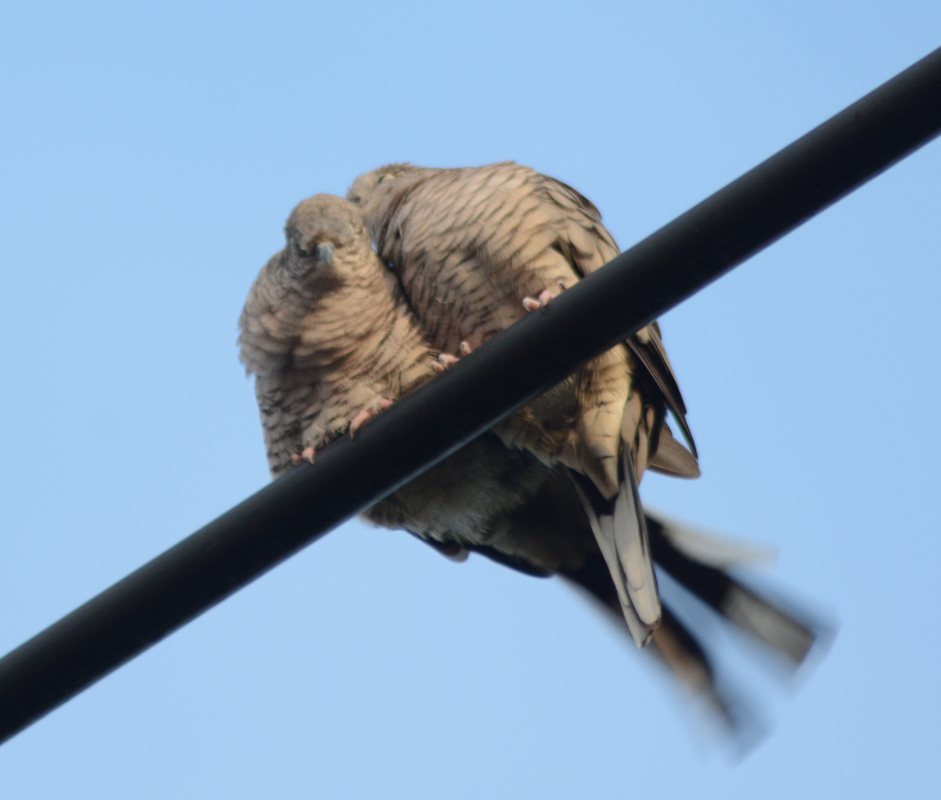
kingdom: Animalia
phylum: Chordata
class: Aves
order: Columbiformes
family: Columbidae
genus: Columbina
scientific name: Columbina inca
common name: Inca dove
